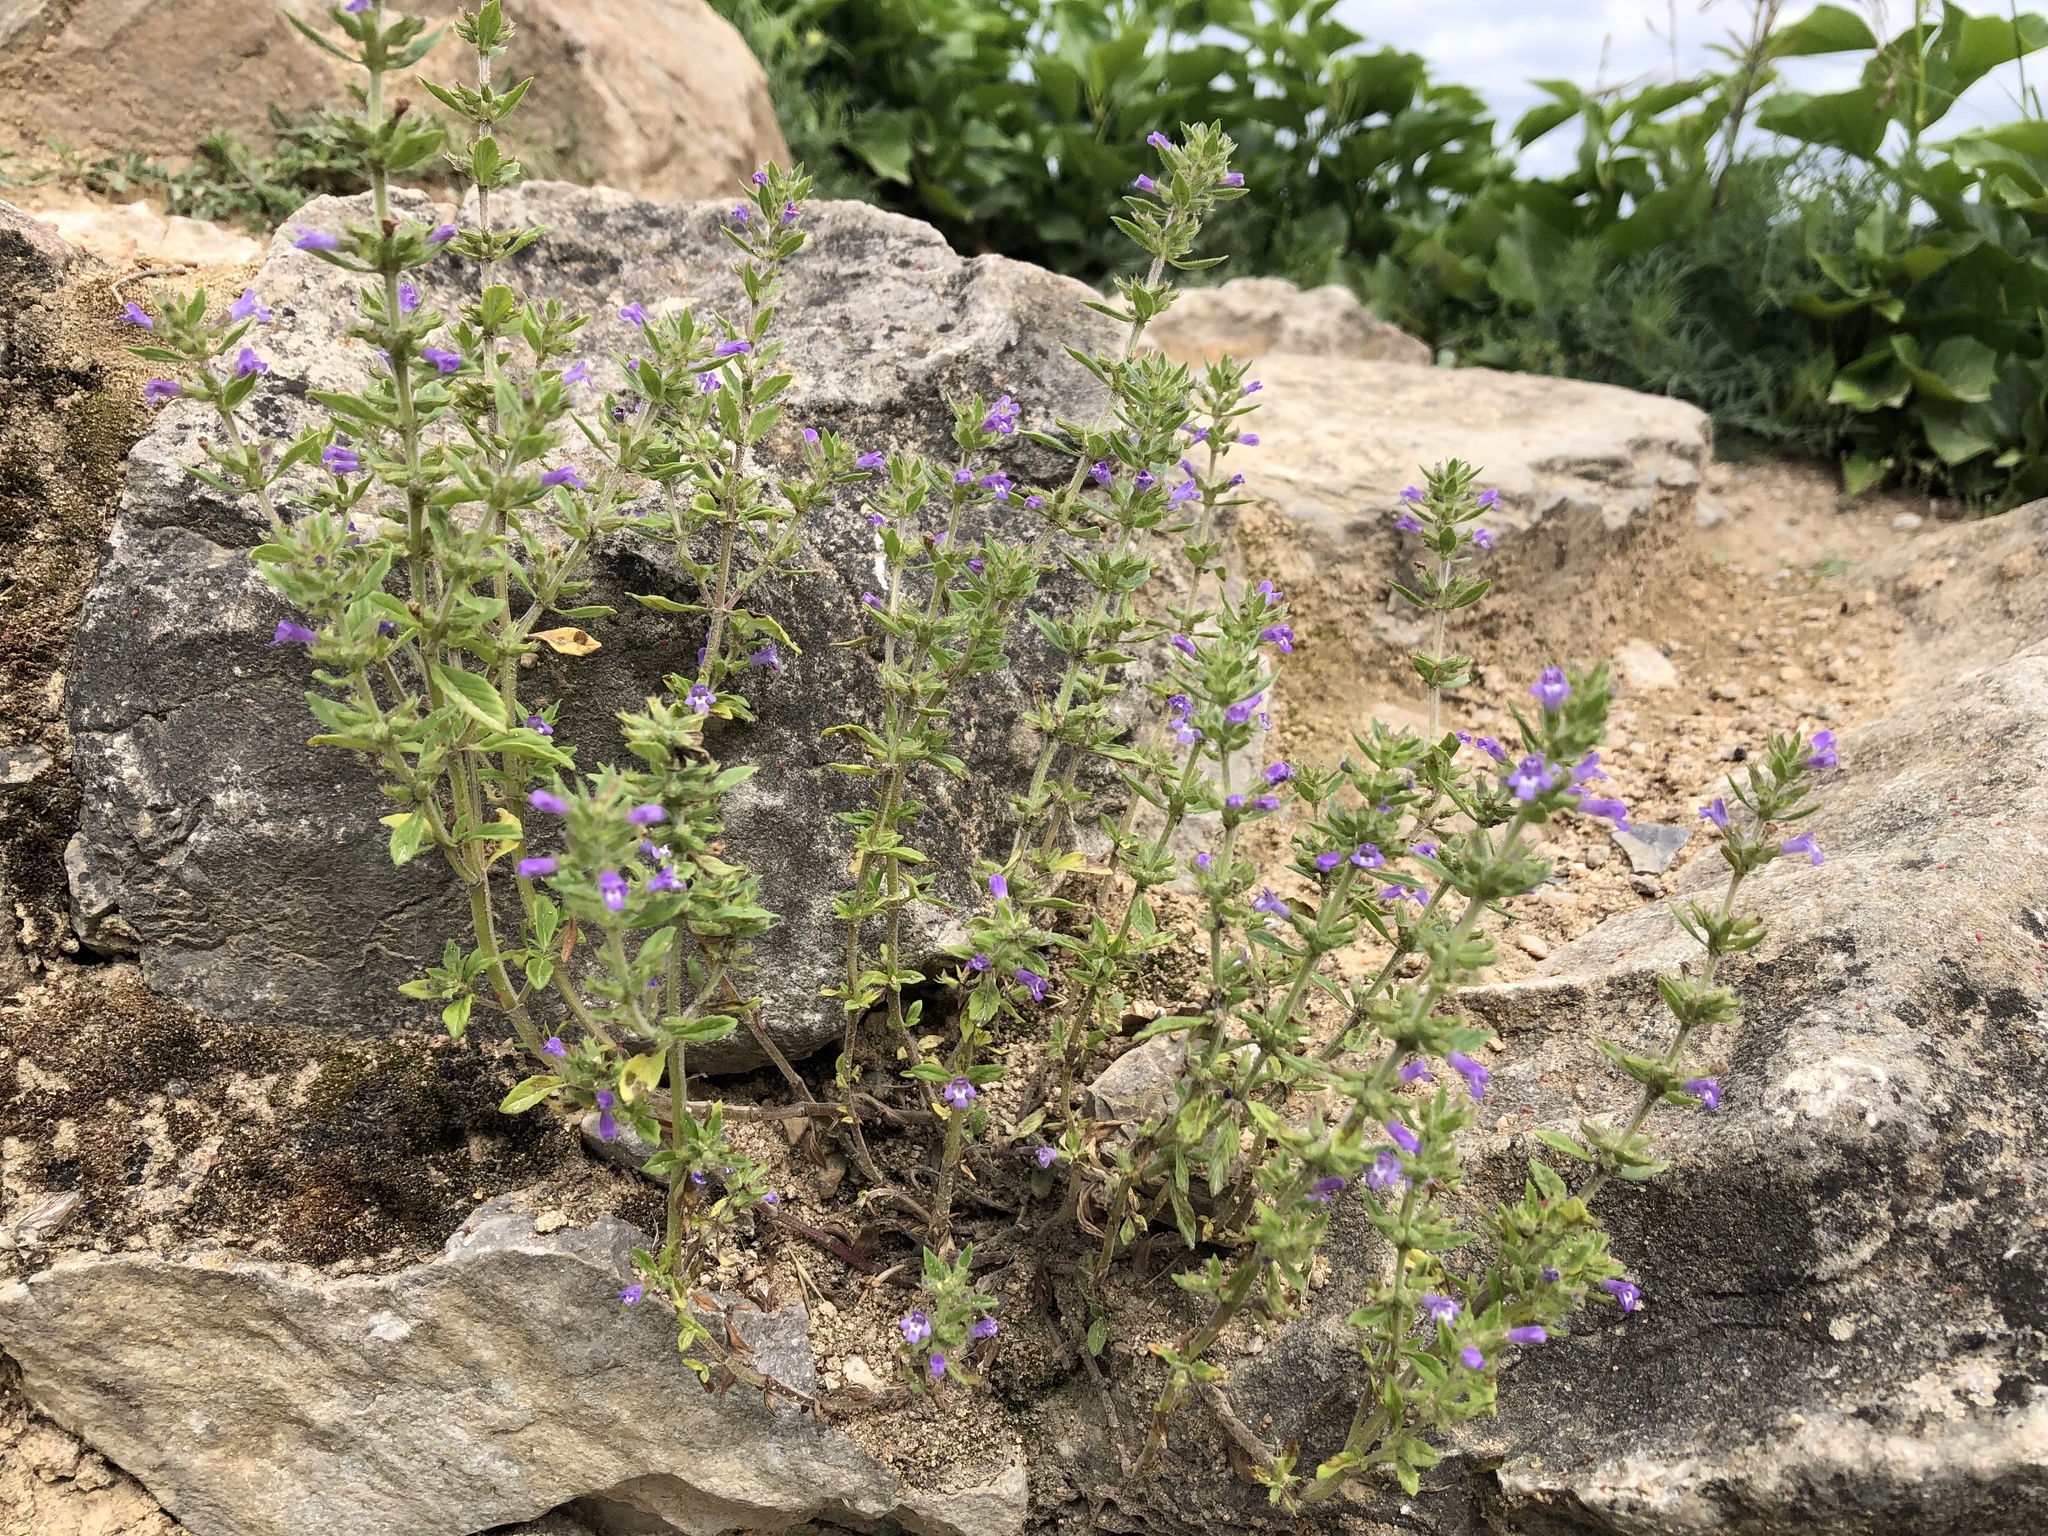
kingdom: Plantae
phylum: Tracheophyta
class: Magnoliopsida
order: Lamiales
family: Lamiaceae
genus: Clinopodium
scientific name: Clinopodium acinos
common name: Basil thyme
